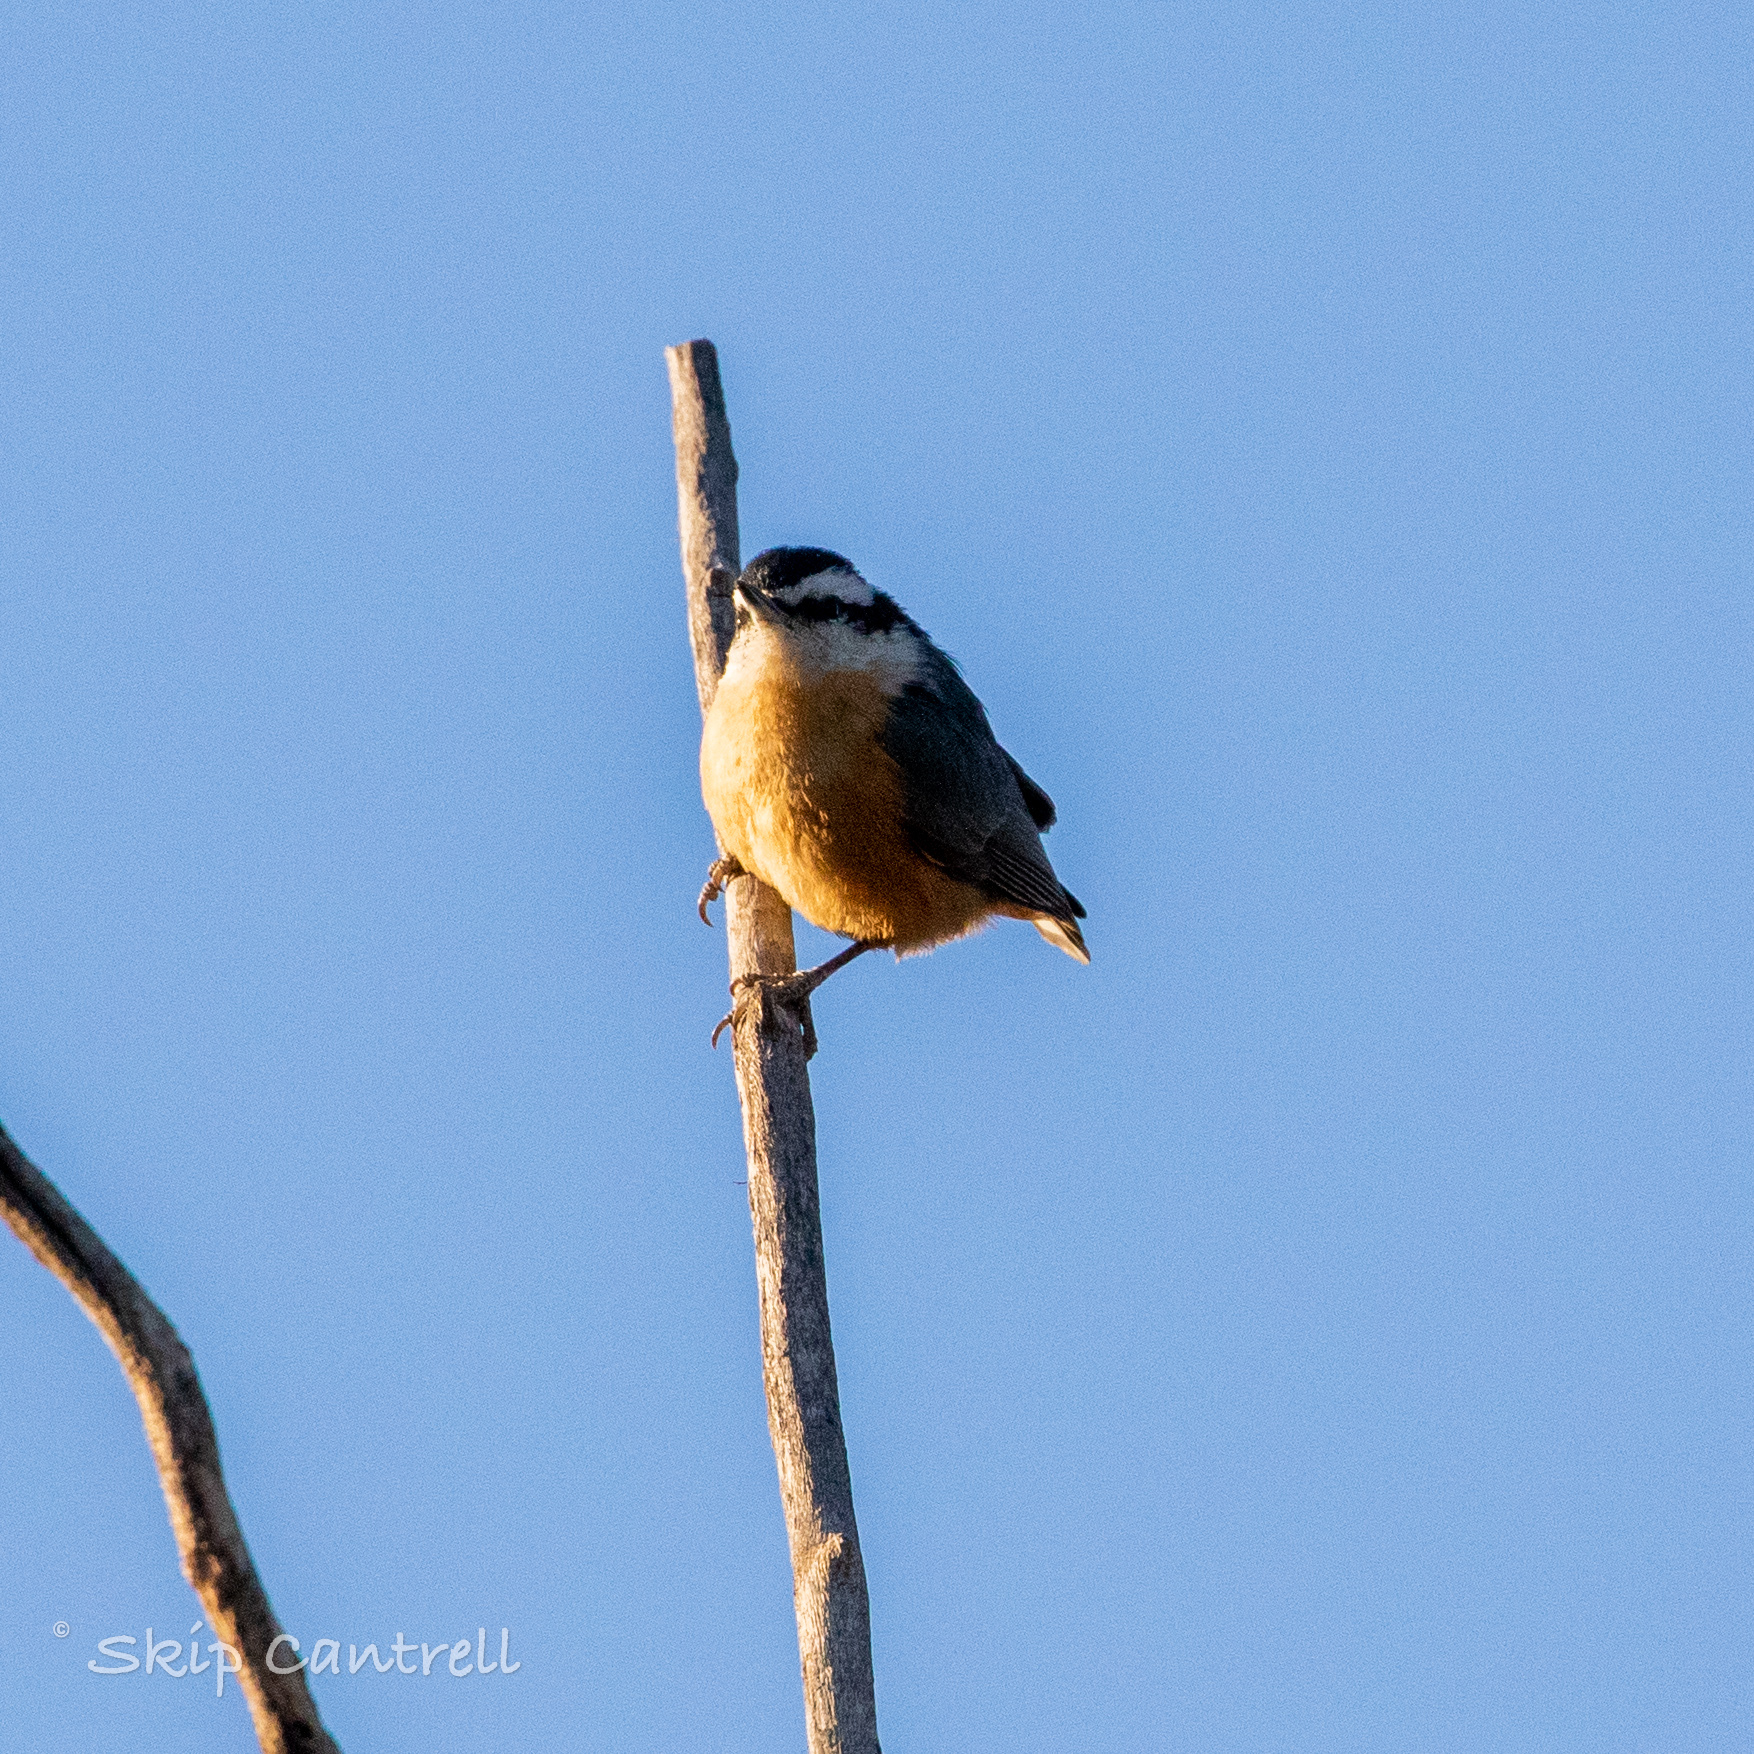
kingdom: Animalia
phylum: Chordata
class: Aves
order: Passeriformes
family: Sittidae
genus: Sitta
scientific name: Sitta canadensis
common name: Red-breasted nuthatch
